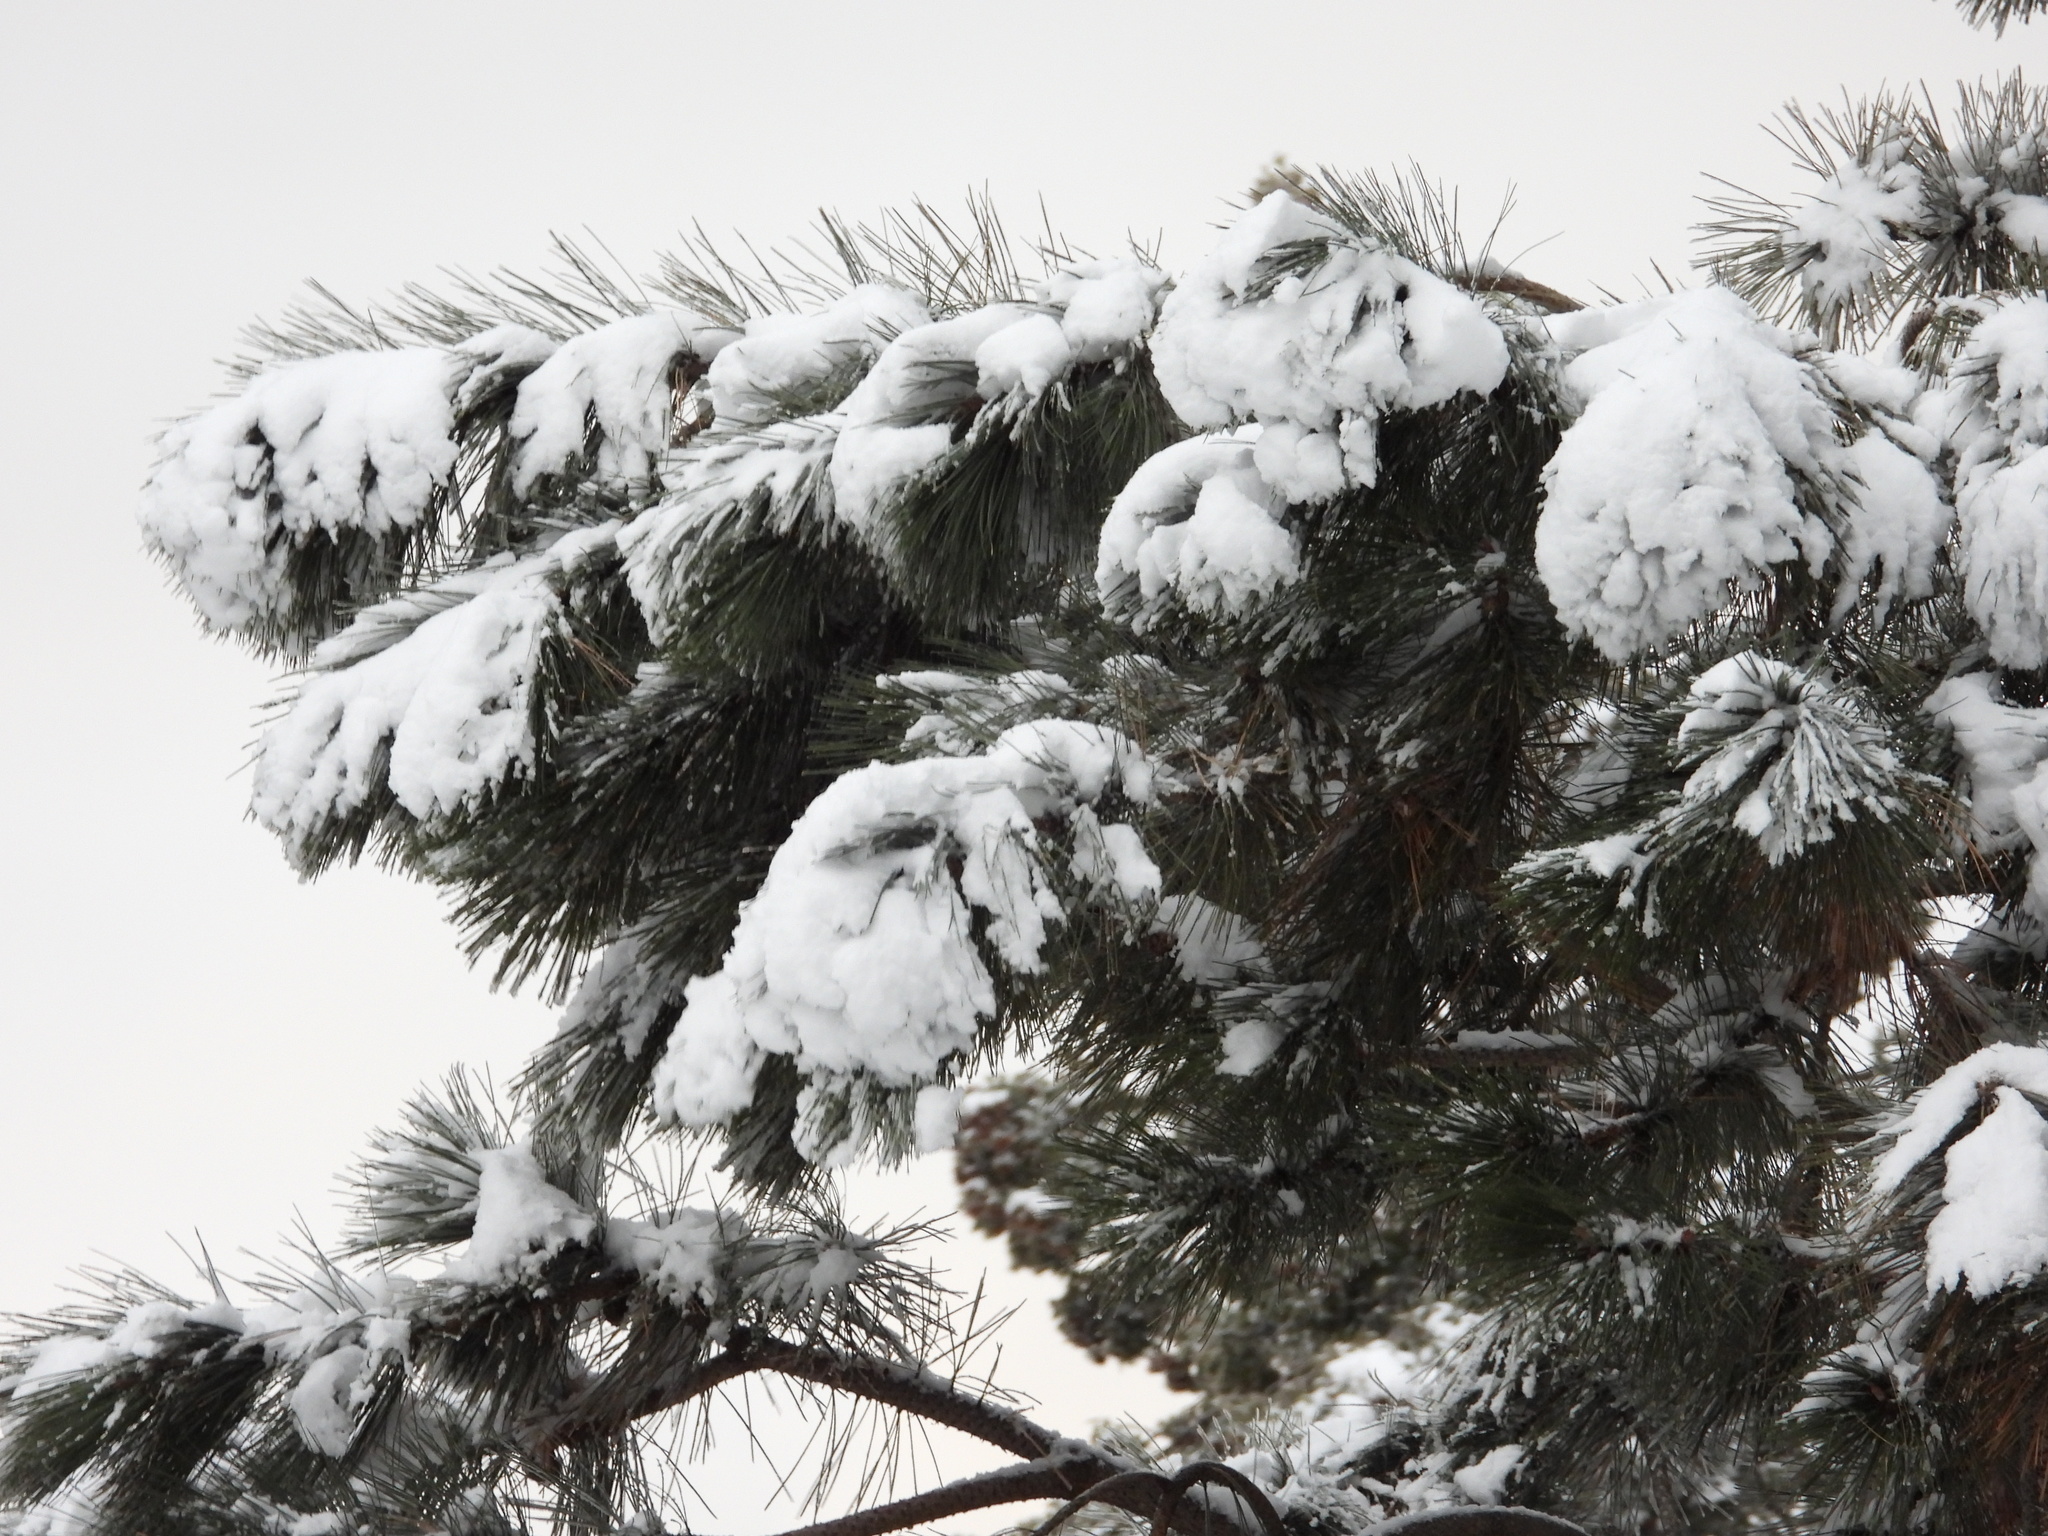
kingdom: Plantae
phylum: Tracheophyta
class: Pinopsida
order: Pinales
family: Pinaceae
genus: Pinus
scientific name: Pinus ponderosa
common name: Western yellow-pine
